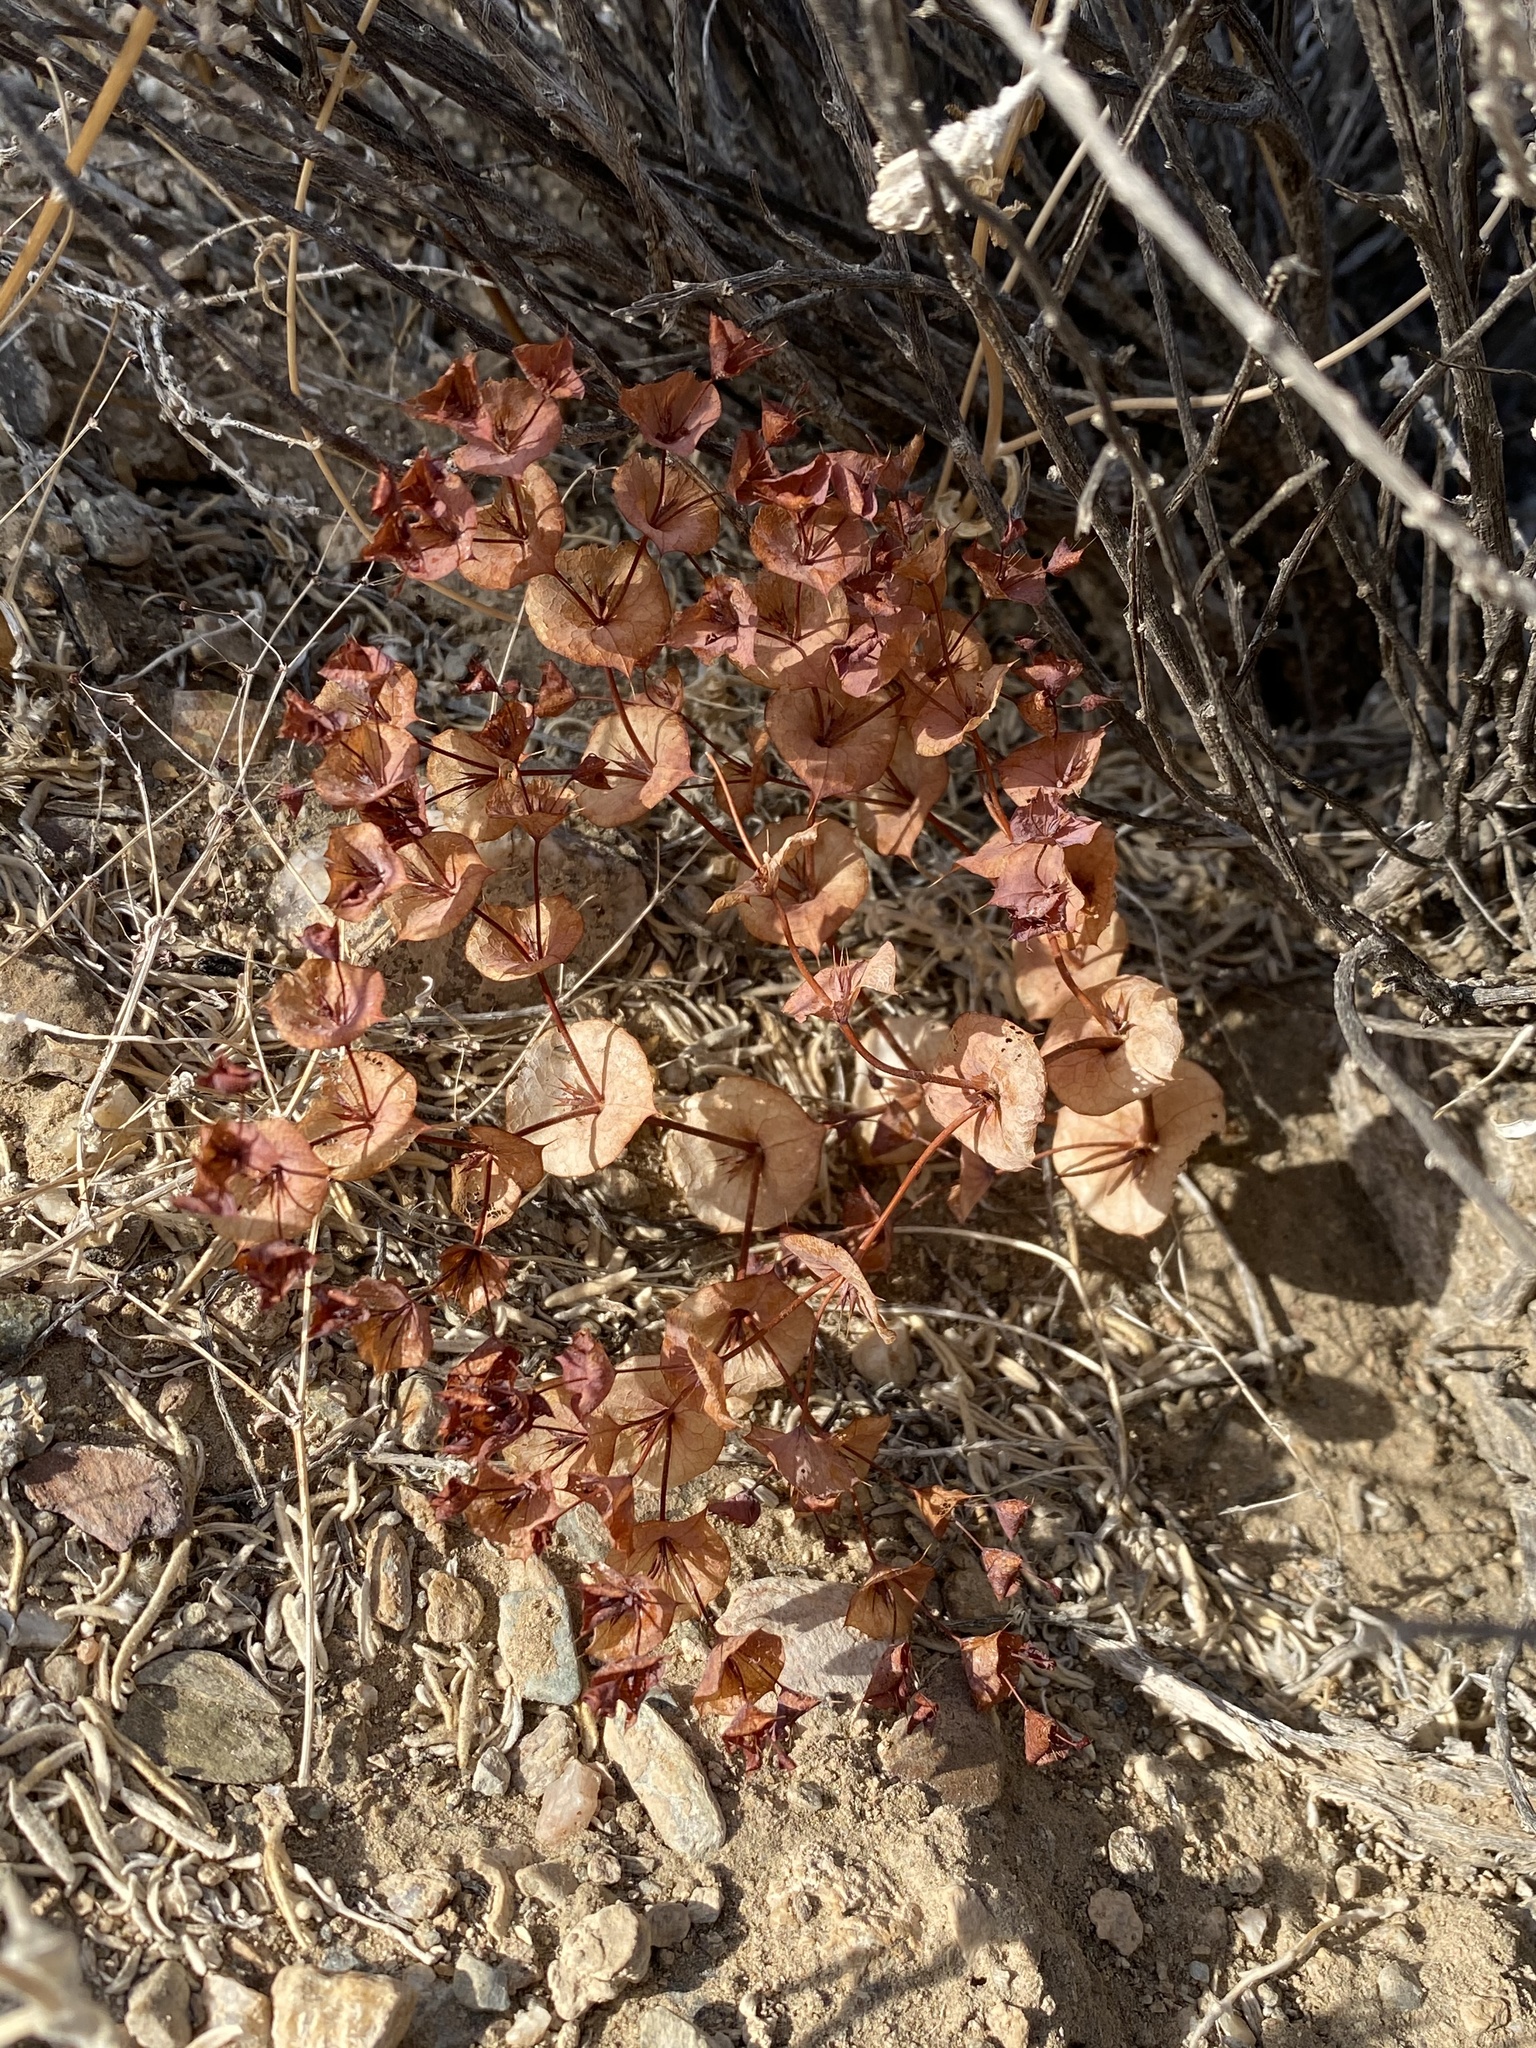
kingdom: Plantae
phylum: Tracheophyta
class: Magnoliopsida
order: Caryophyllales
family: Polygonaceae
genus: Oxytheca
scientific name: Oxytheca perfoliata
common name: Round-leaf puncturebract
